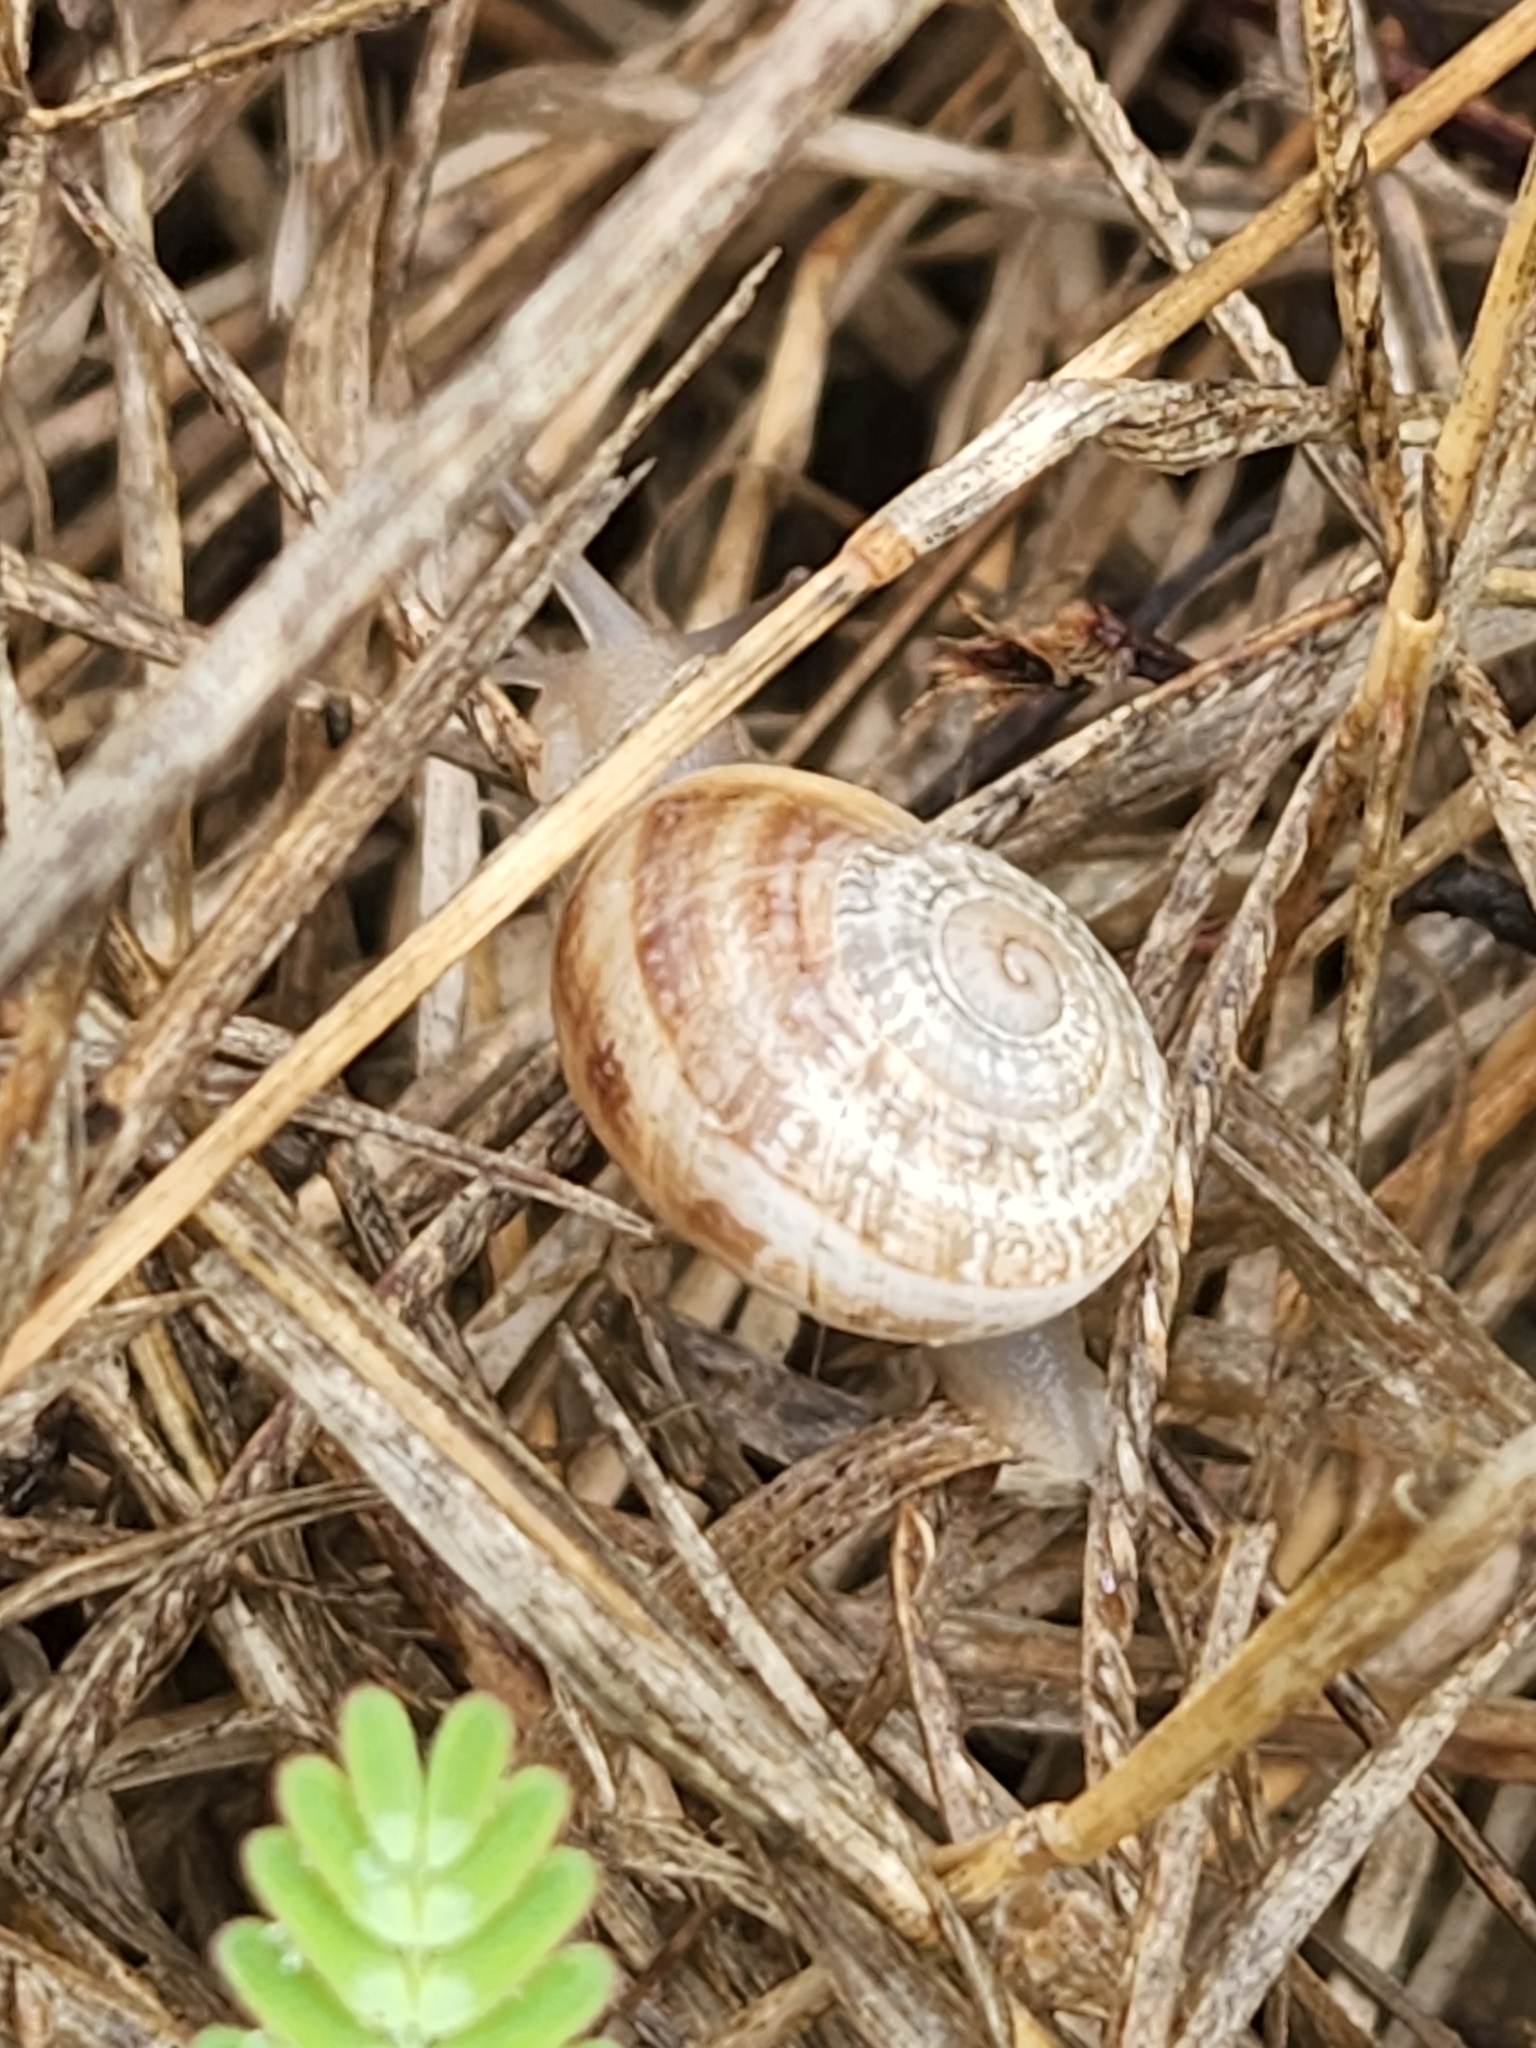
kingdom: Animalia
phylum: Mollusca
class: Gastropoda
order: Stylommatophora
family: Helicidae
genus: Otala
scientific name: Otala lactea
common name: Milk snail
